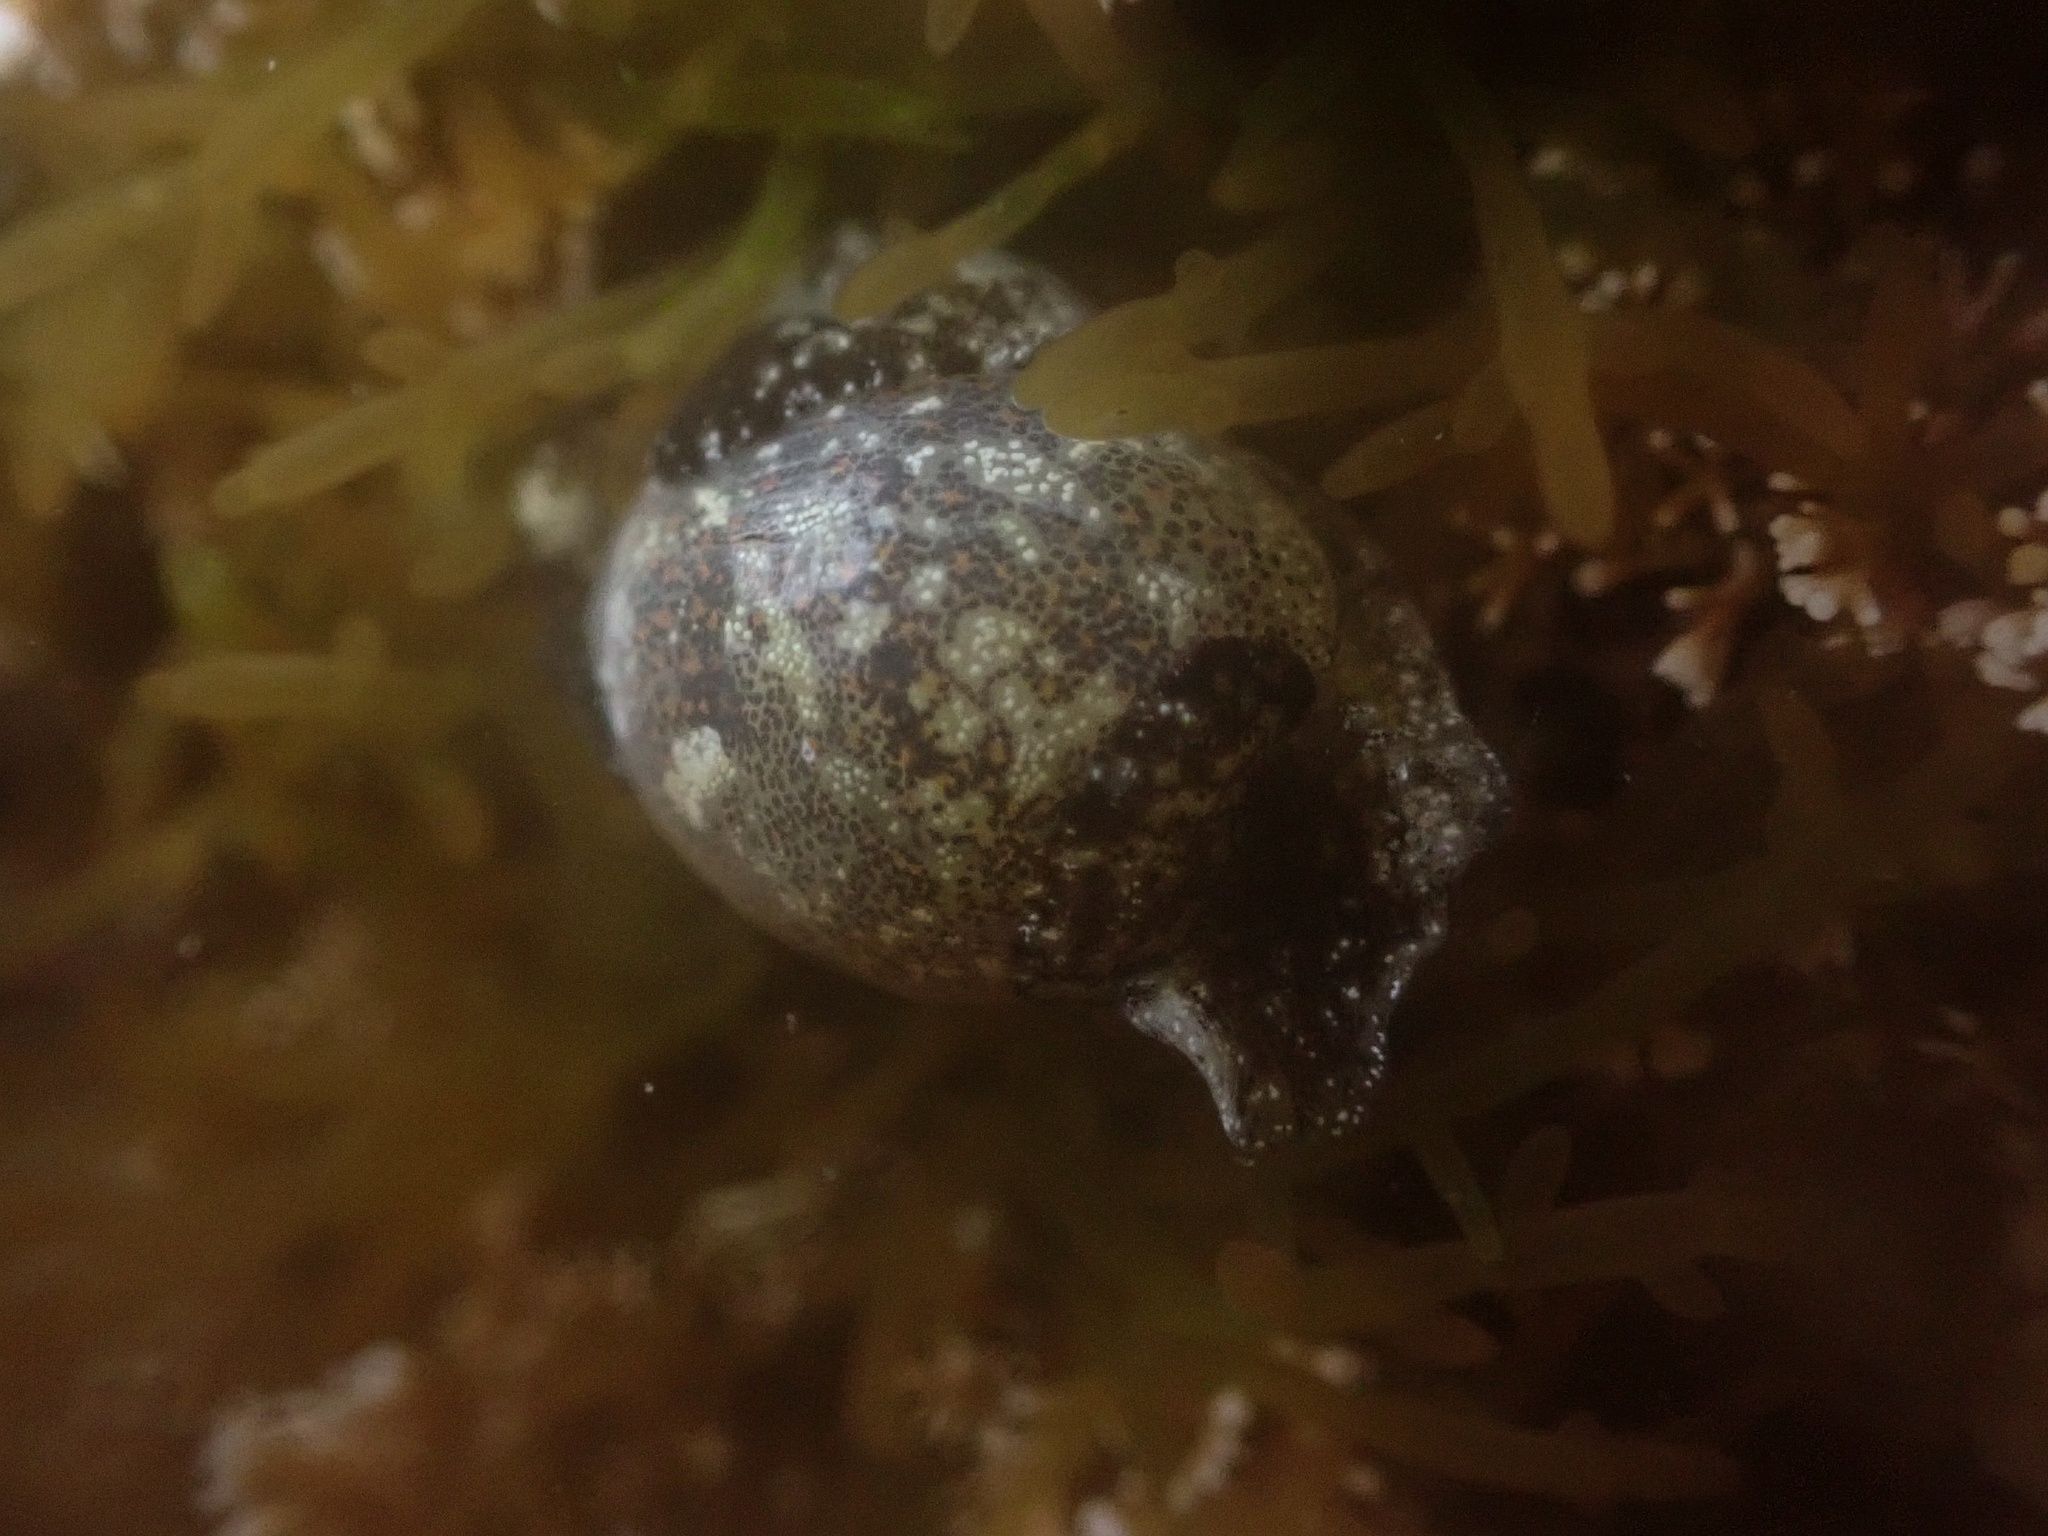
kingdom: Animalia
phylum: Mollusca
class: Gastropoda
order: Cephalaspidea
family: Haminoeidae
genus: Haminoea
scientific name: Haminoea vesicula
